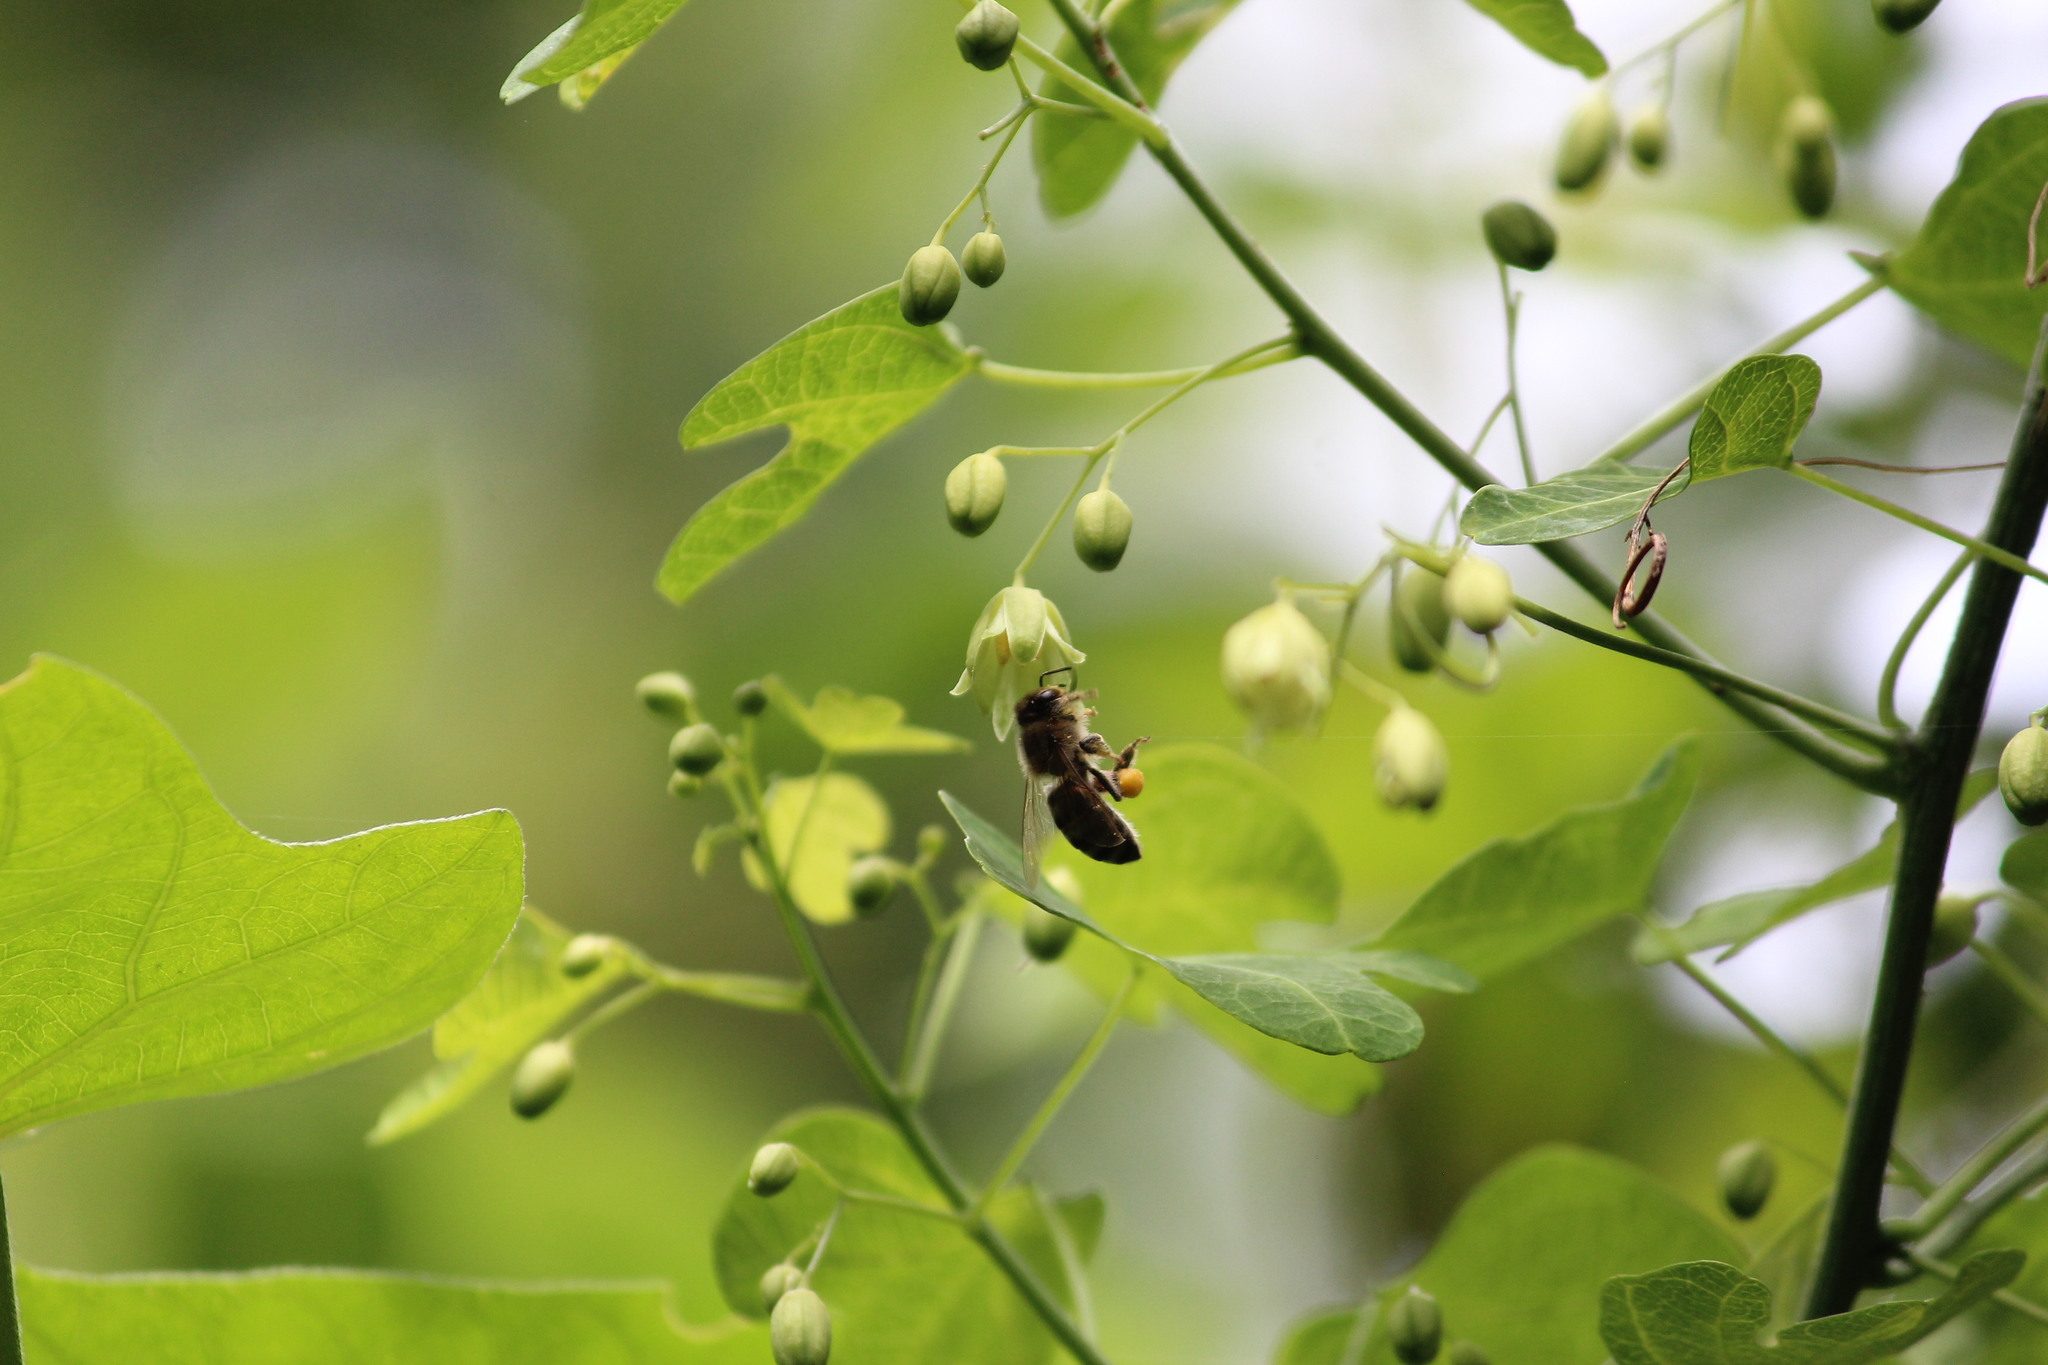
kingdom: Animalia
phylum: Arthropoda
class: Insecta
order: Hymenoptera
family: Apidae
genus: Apis
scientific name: Apis mellifera
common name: Honey bee
